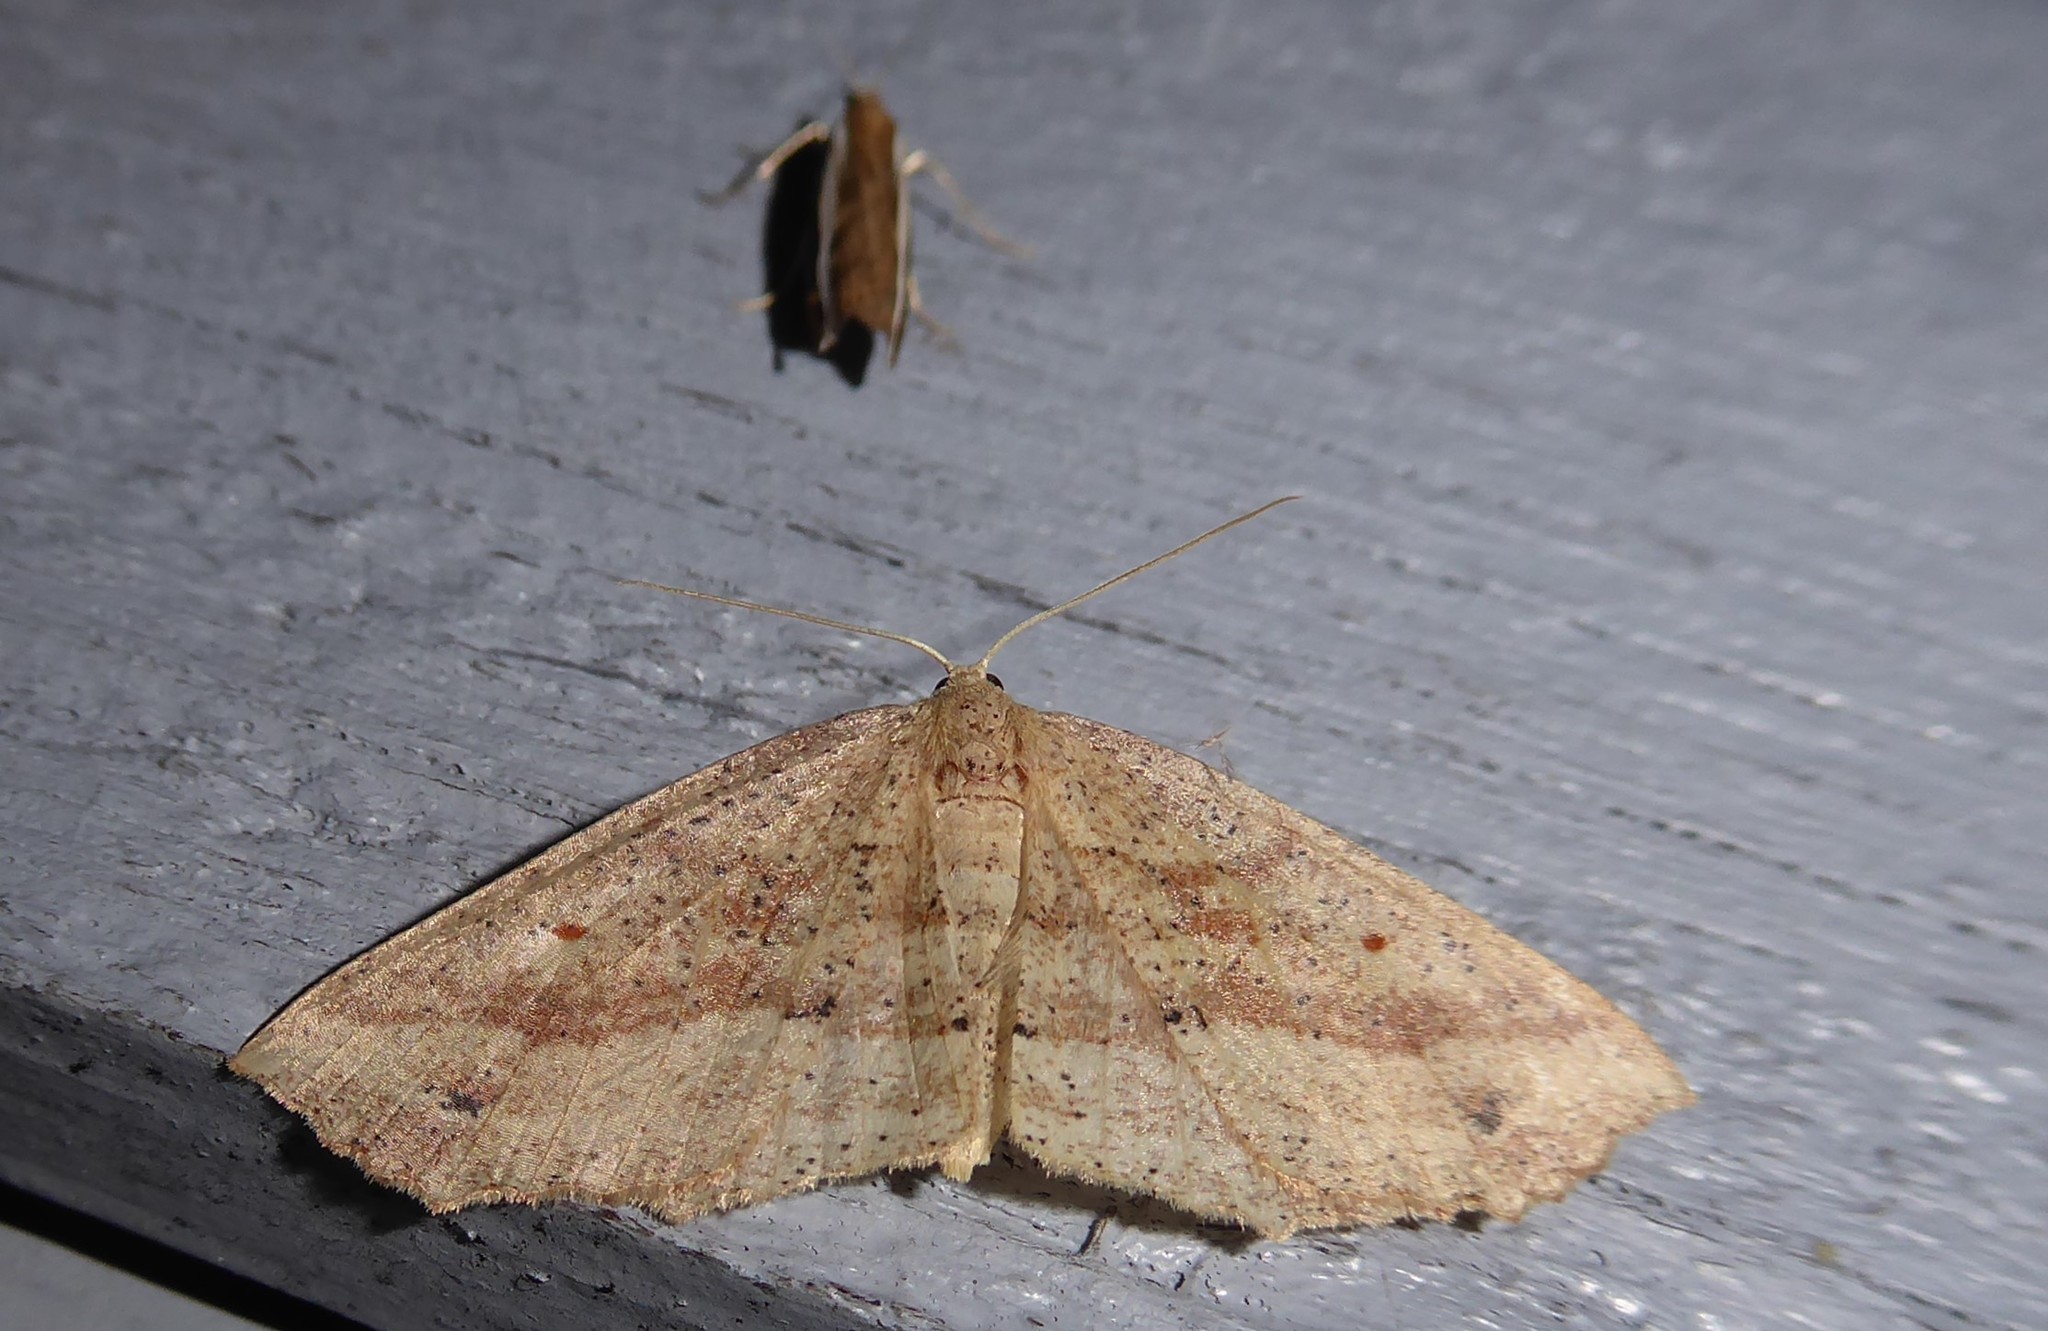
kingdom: Animalia
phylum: Arthropoda
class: Insecta
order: Lepidoptera
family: Geometridae
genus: Xyridacma
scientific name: Xyridacma veronicae
